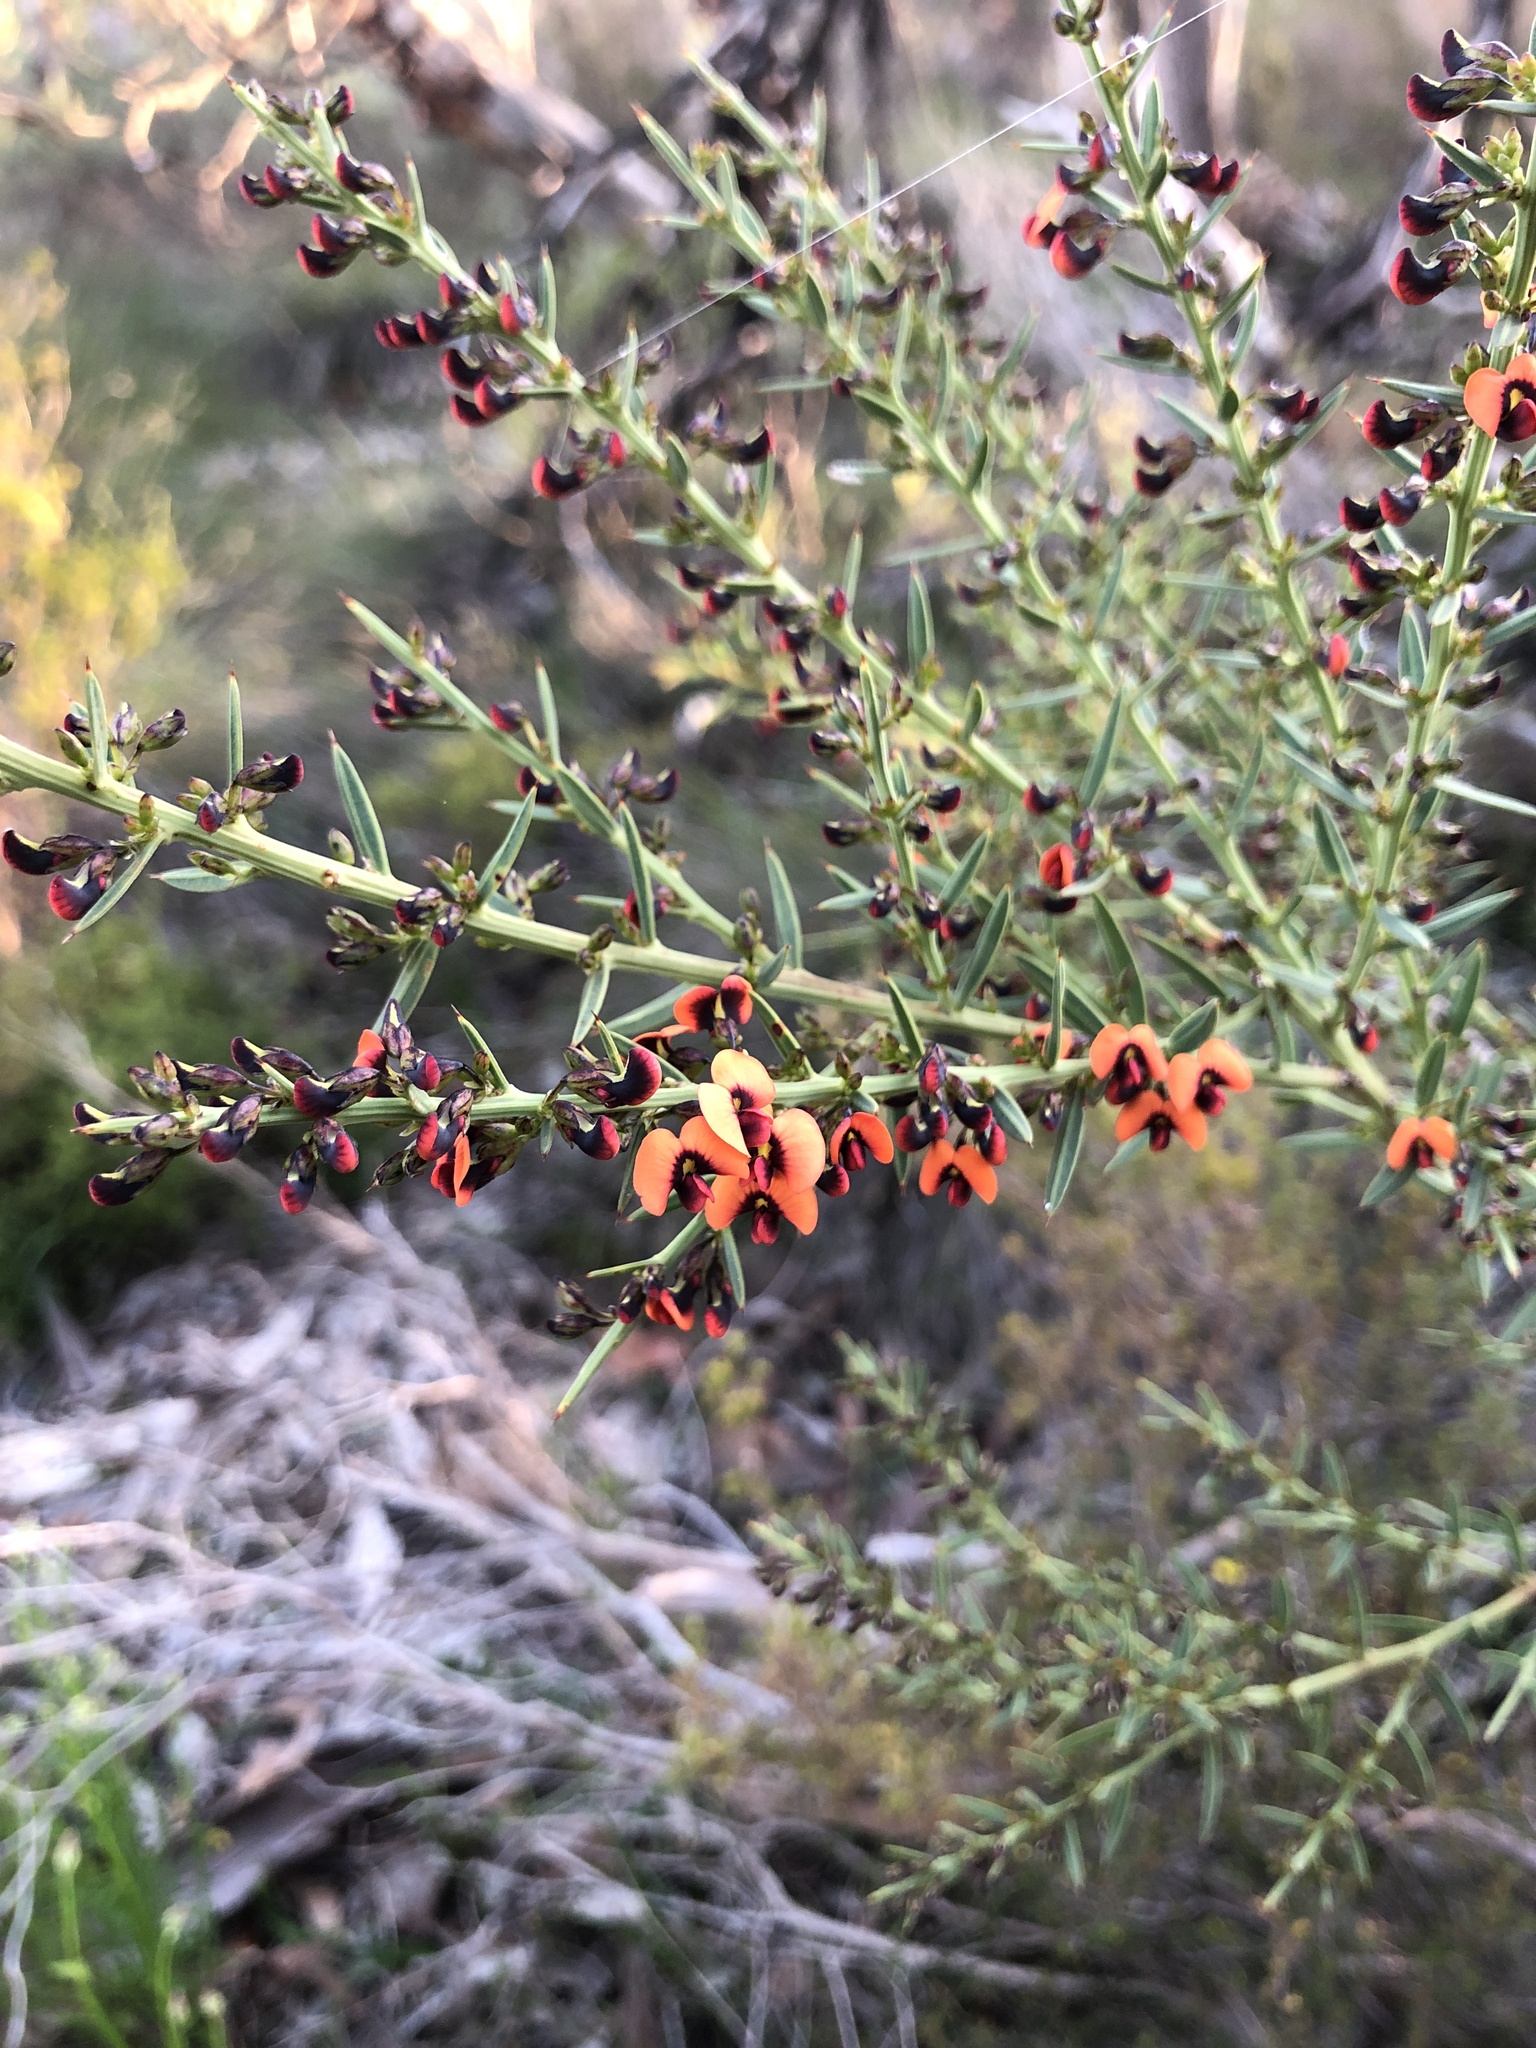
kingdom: Plantae
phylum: Tracheophyta
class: Magnoliopsida
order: Fabales
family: Fabaceae
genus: Daviesia
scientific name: Daviesia ulicifolia
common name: Gorse bitter-pea
